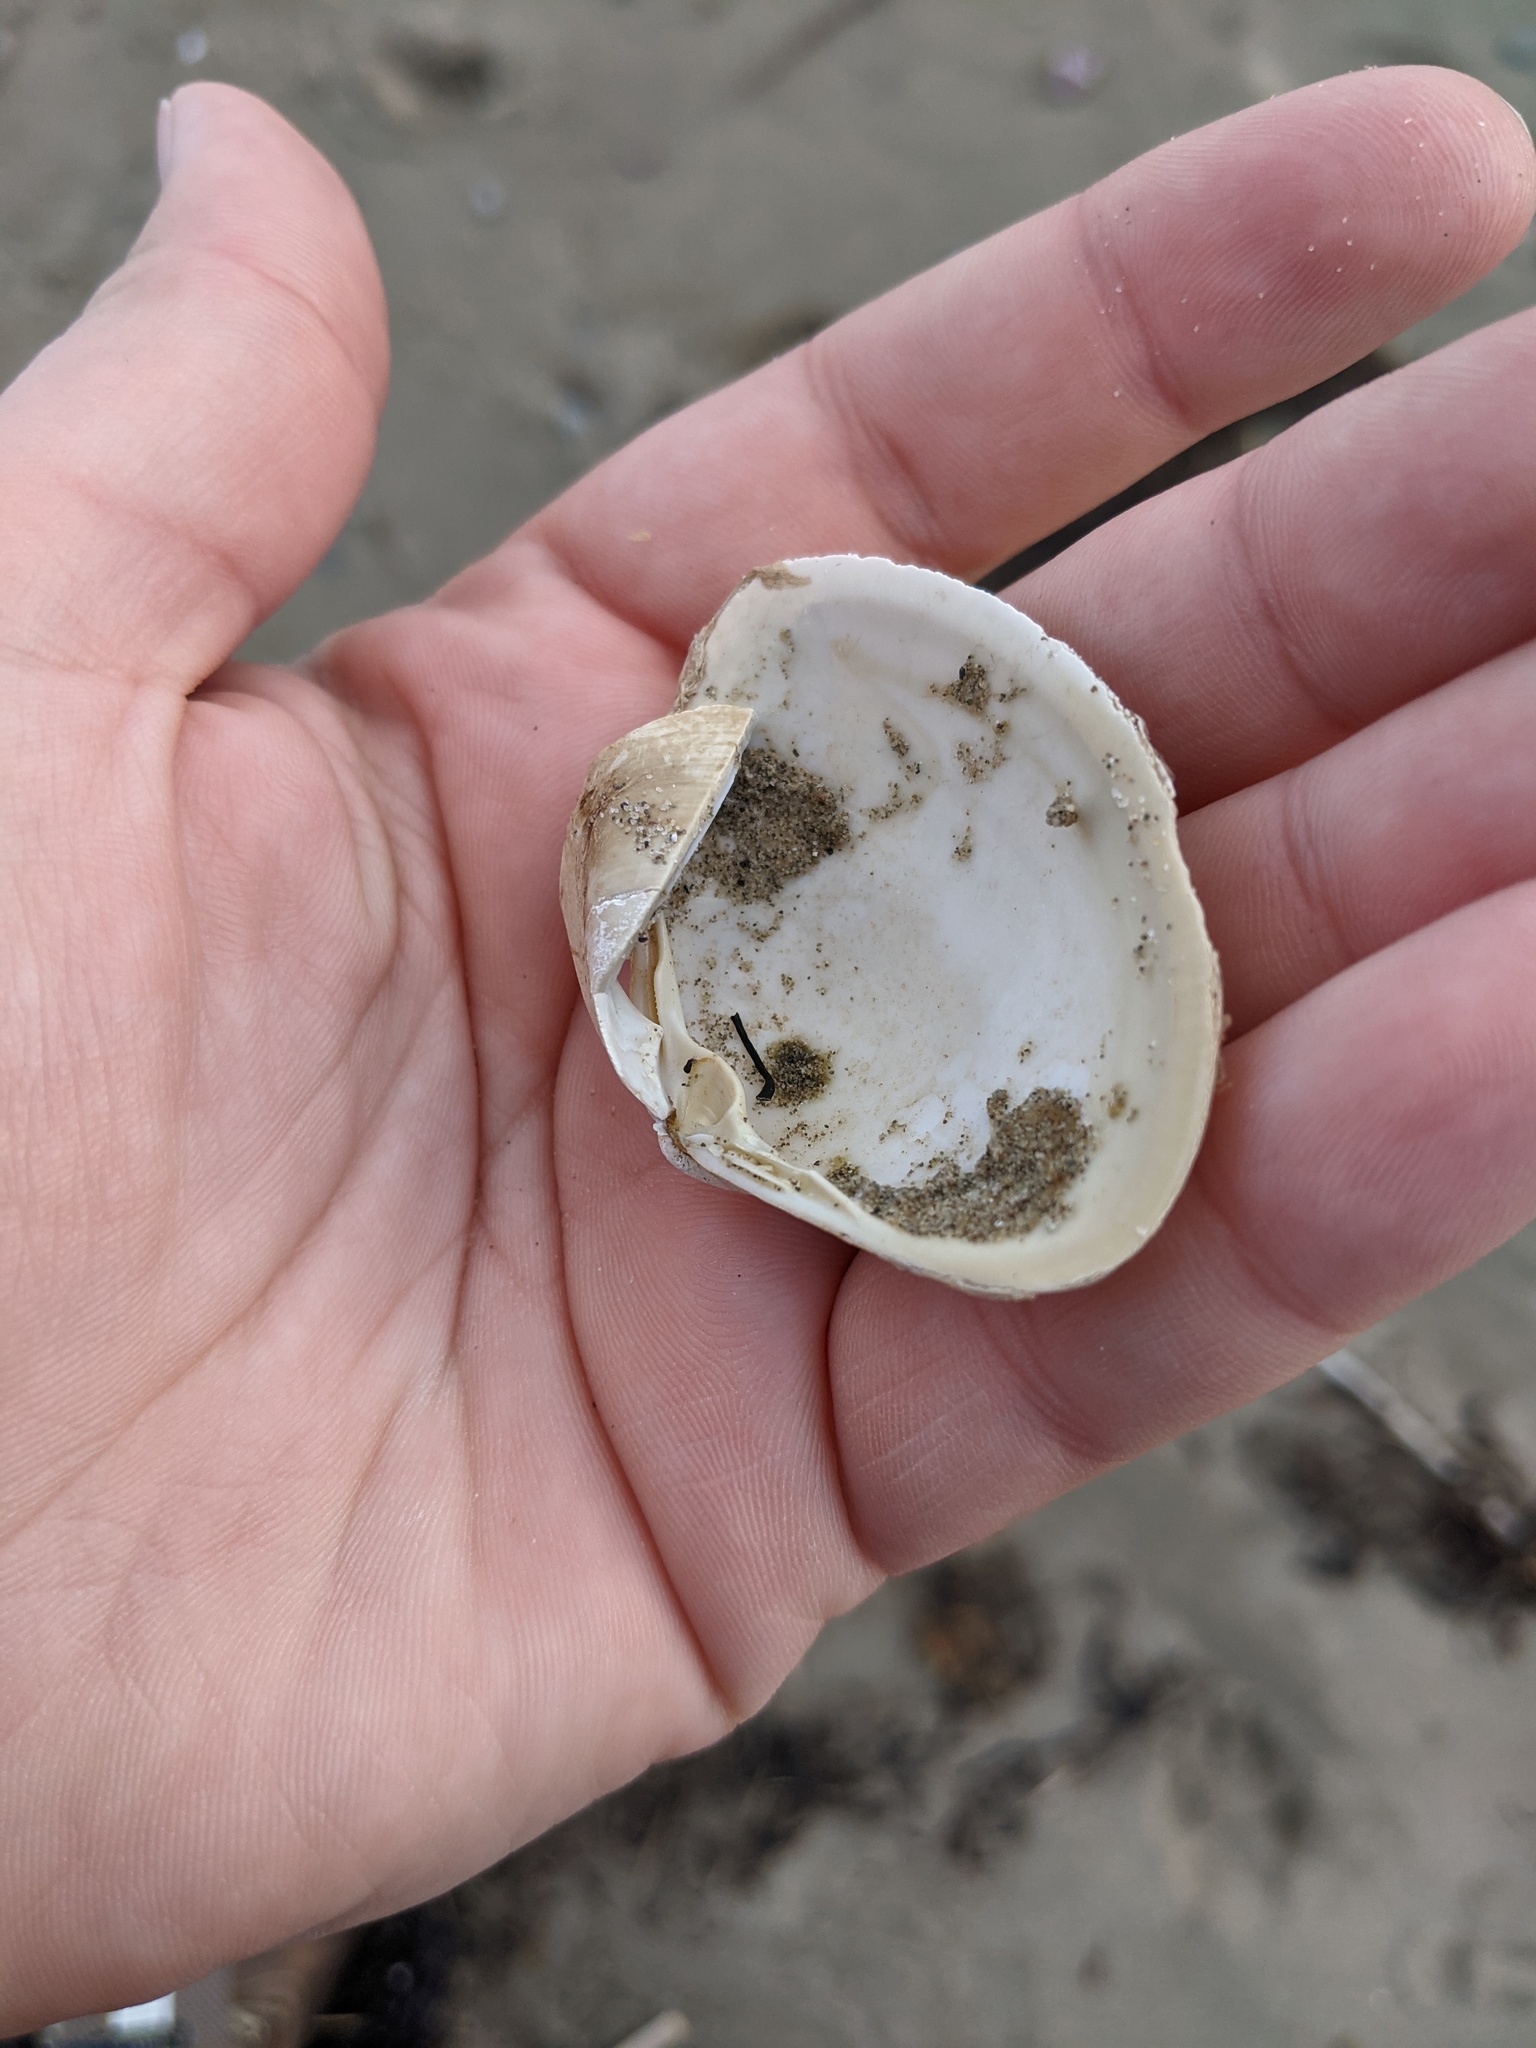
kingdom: Animalia
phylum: Mollusca
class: Bivalvia
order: Venerida
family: Mactridae
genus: Spisula
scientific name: Spisula solidissima
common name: Atlantic surf clam
